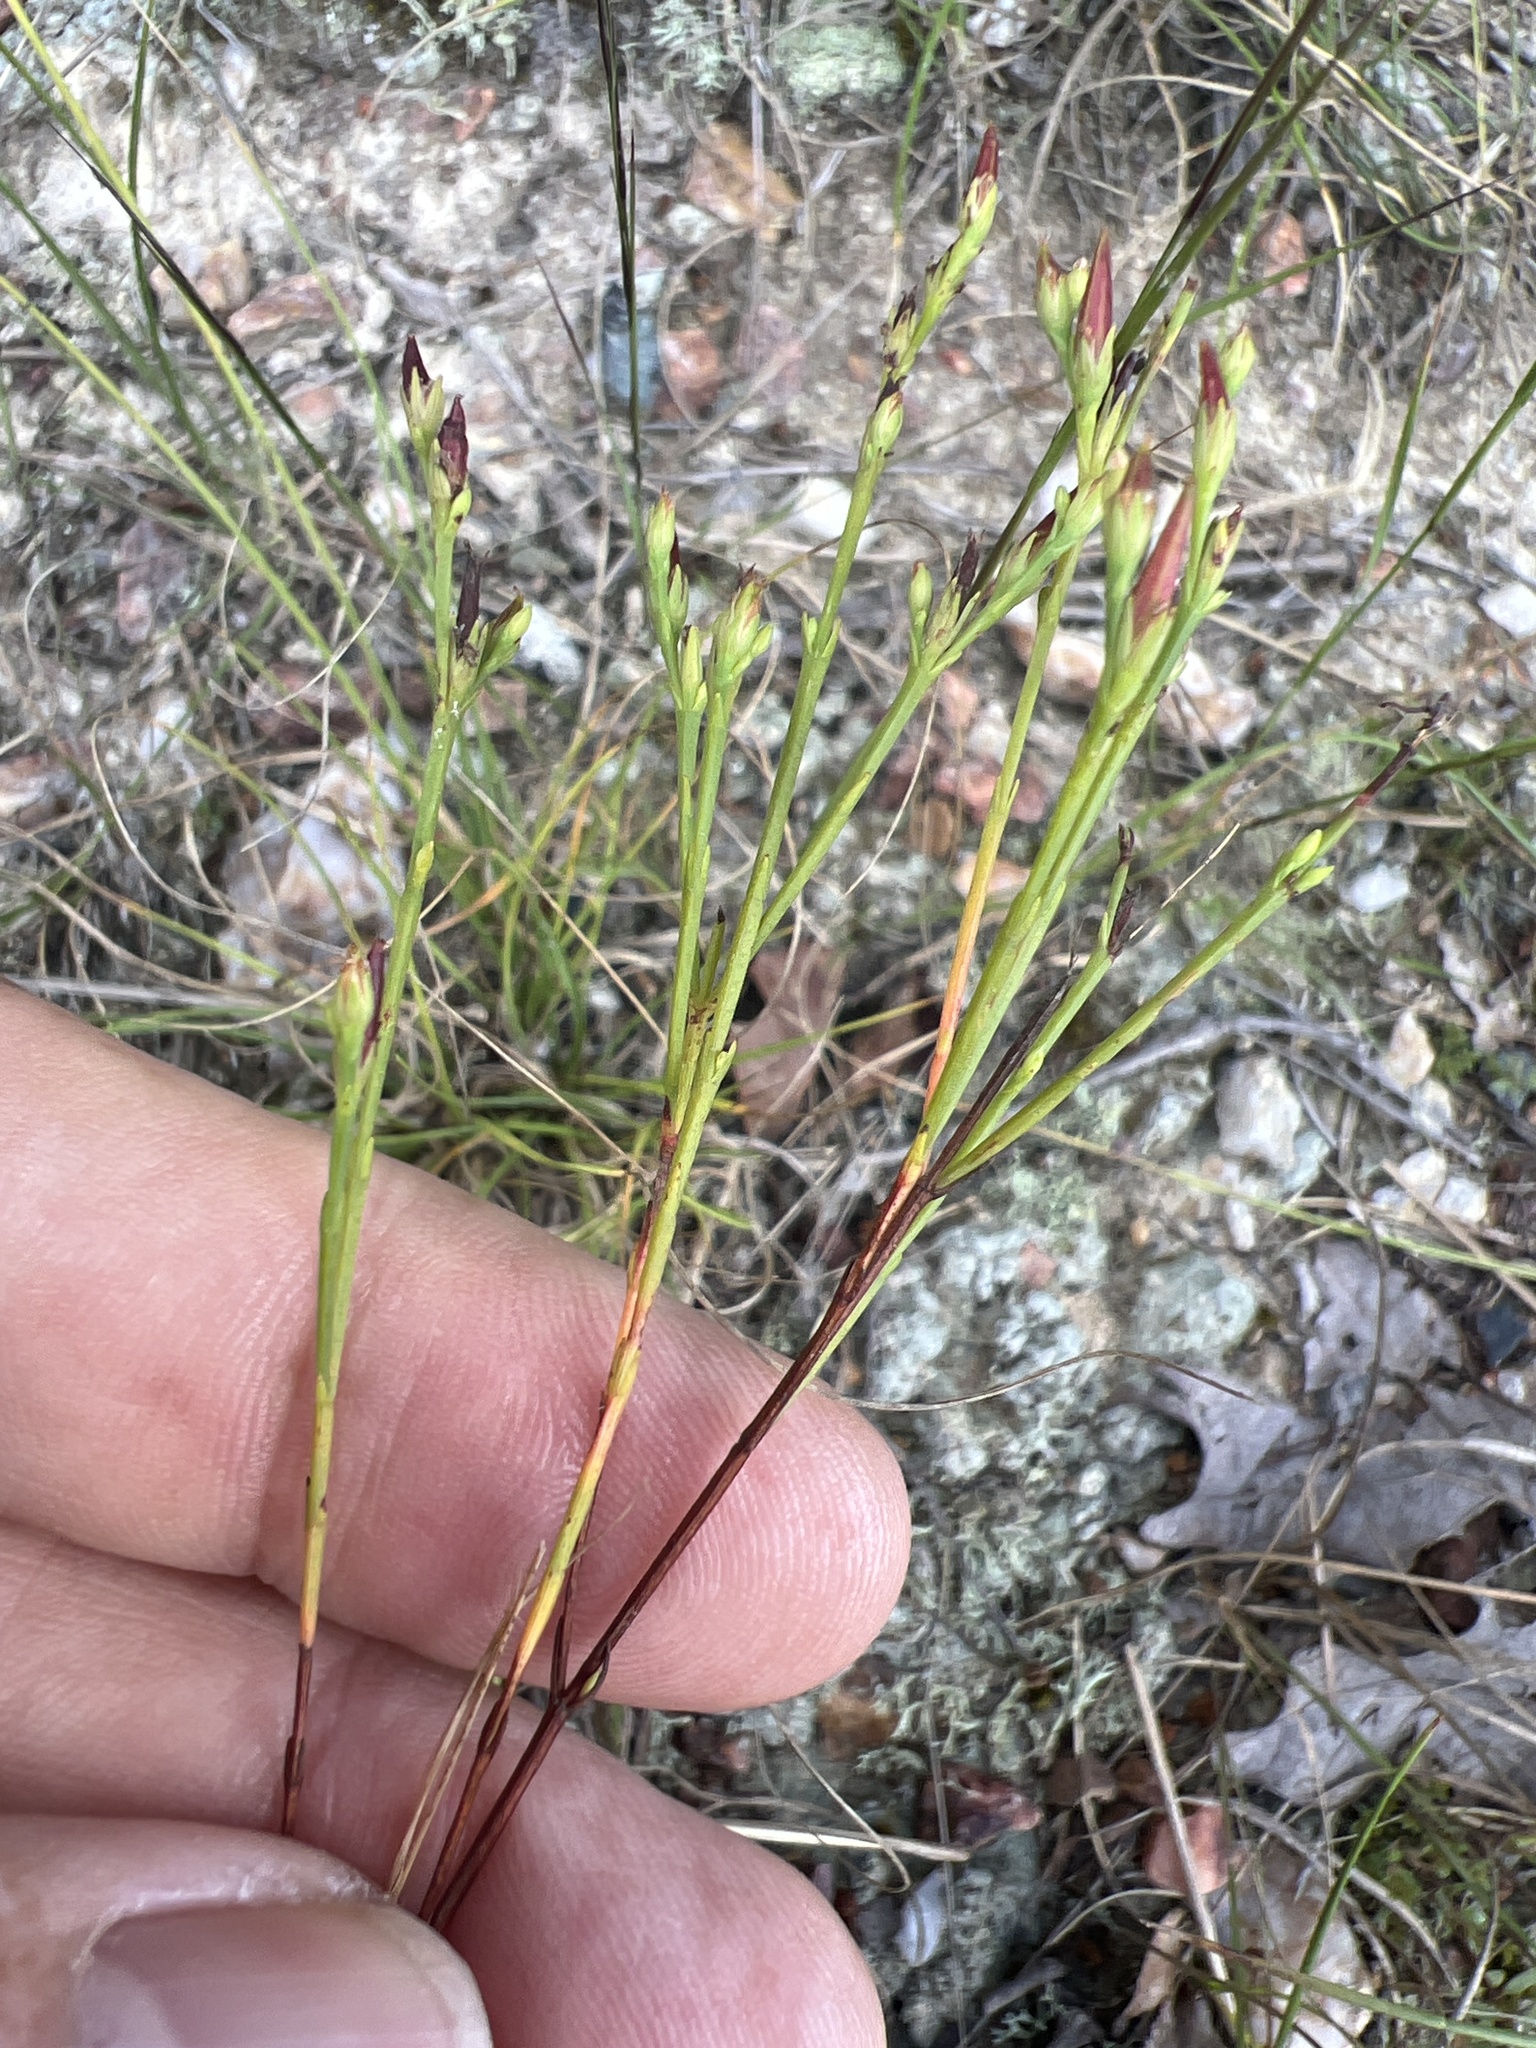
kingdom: Plantae
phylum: Tracheophyta
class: Magnoliopsida
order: Malpighiales
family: Hypericaceae
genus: Hypericum
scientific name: Hypericum gentianoides
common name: Gentian-leaved st. john's-wort
